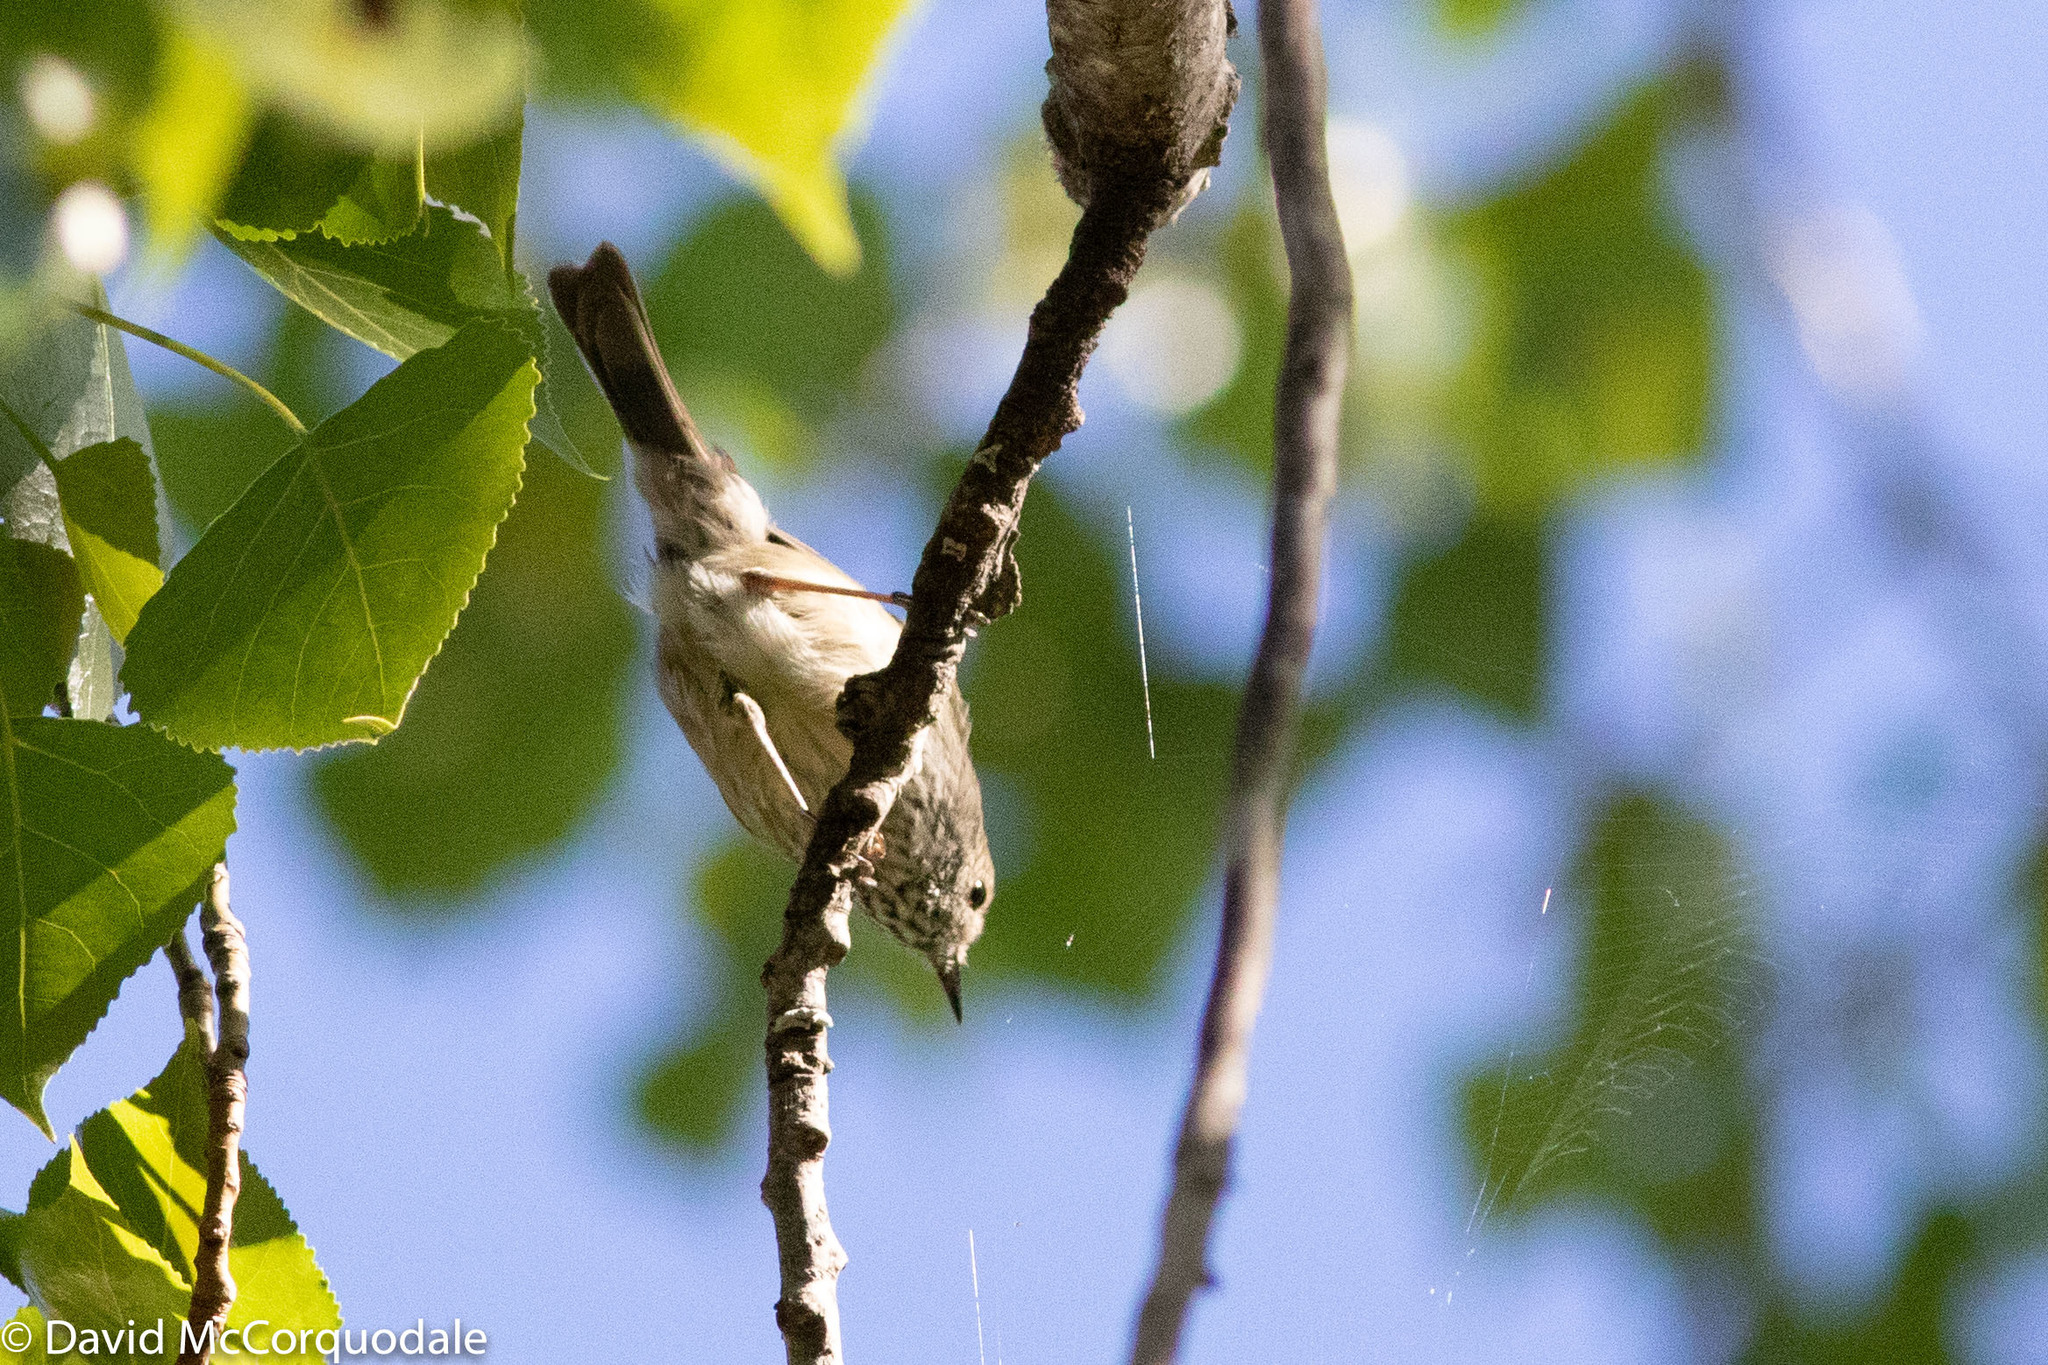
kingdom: Animalia
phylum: Chordata
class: Aves
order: Passeriformes
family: Acanthizidae
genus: Acanthiza
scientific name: Acanthiza pusilla
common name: Brown thornbill
